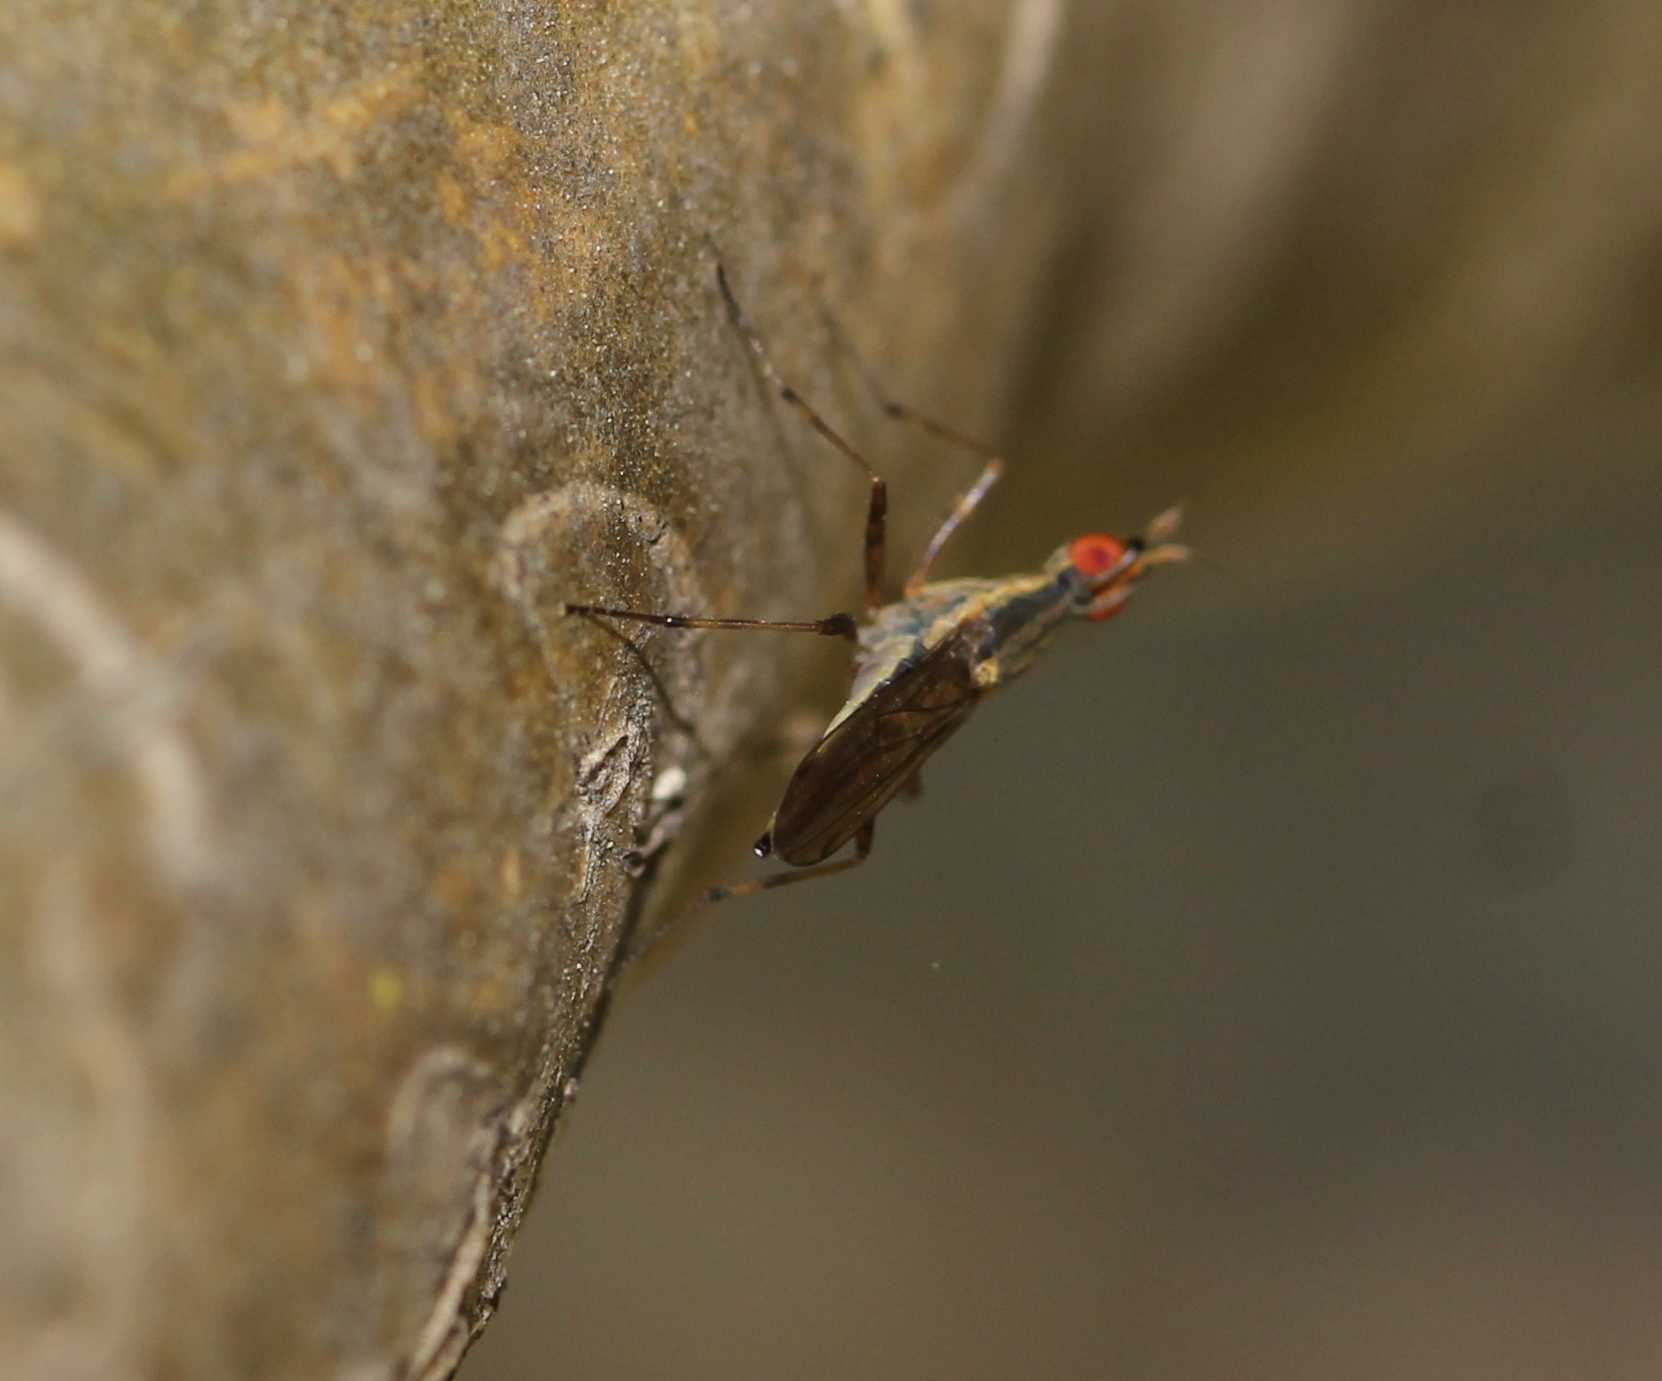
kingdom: Animalia
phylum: Arthropoda
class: Insecta
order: Diptera
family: Neriidae
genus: Glyphidops
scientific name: Glyphidops
